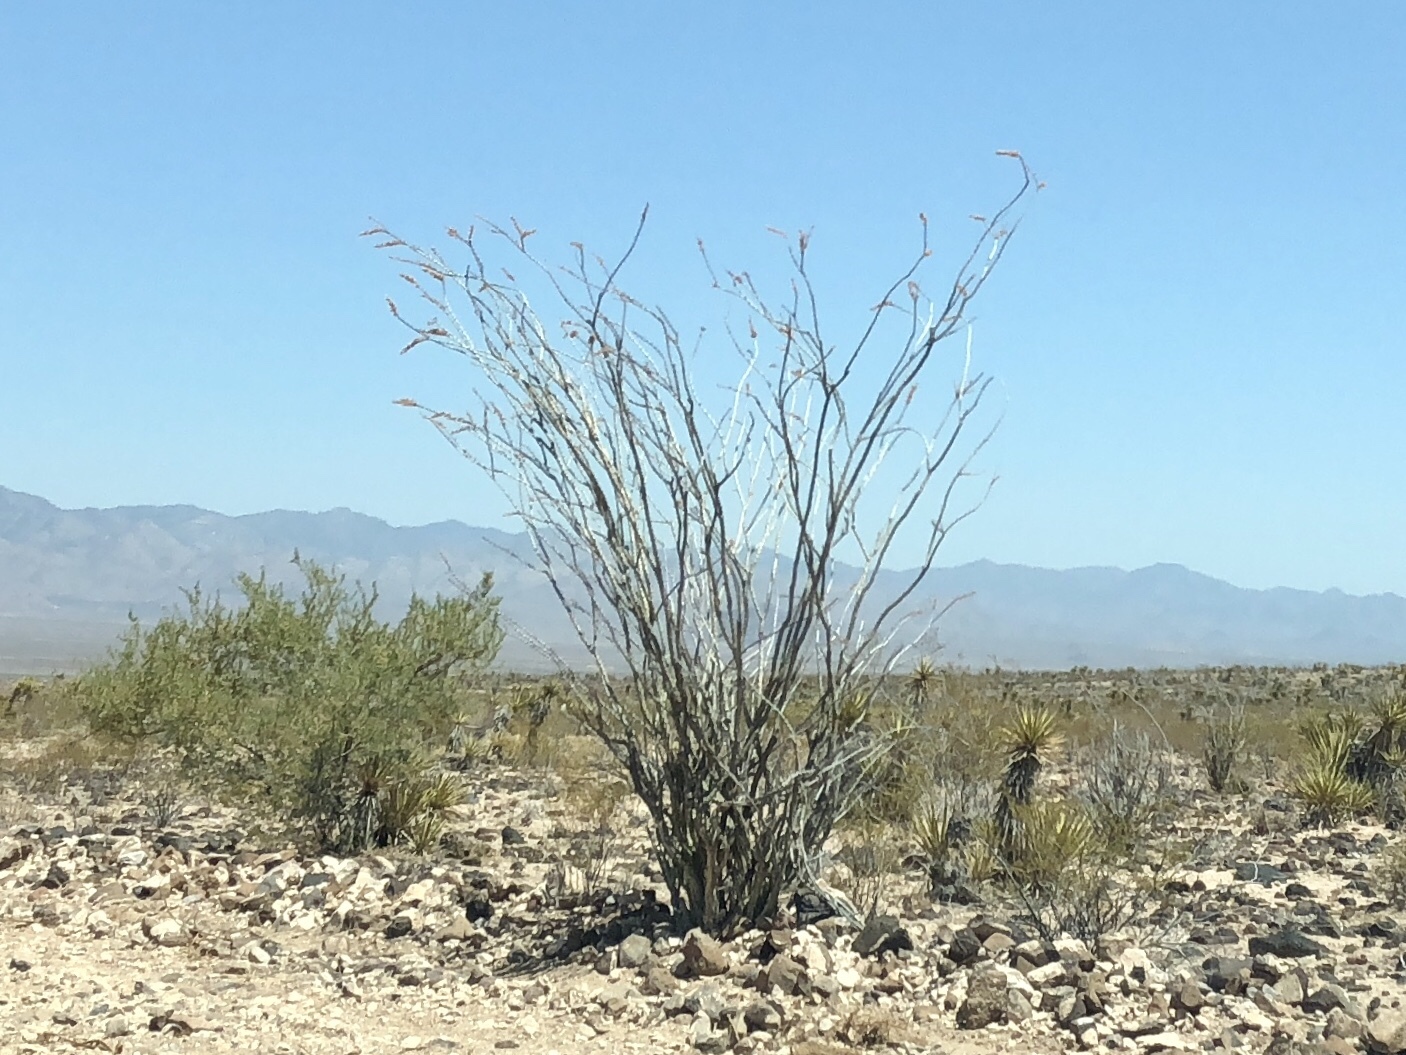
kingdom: Plantae
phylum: Tracheophyta
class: Magnoliopsida
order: Ericales
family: Fouquieriaceae
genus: Fouquieria
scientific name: Fouquieria splendens
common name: Vine-cactus
